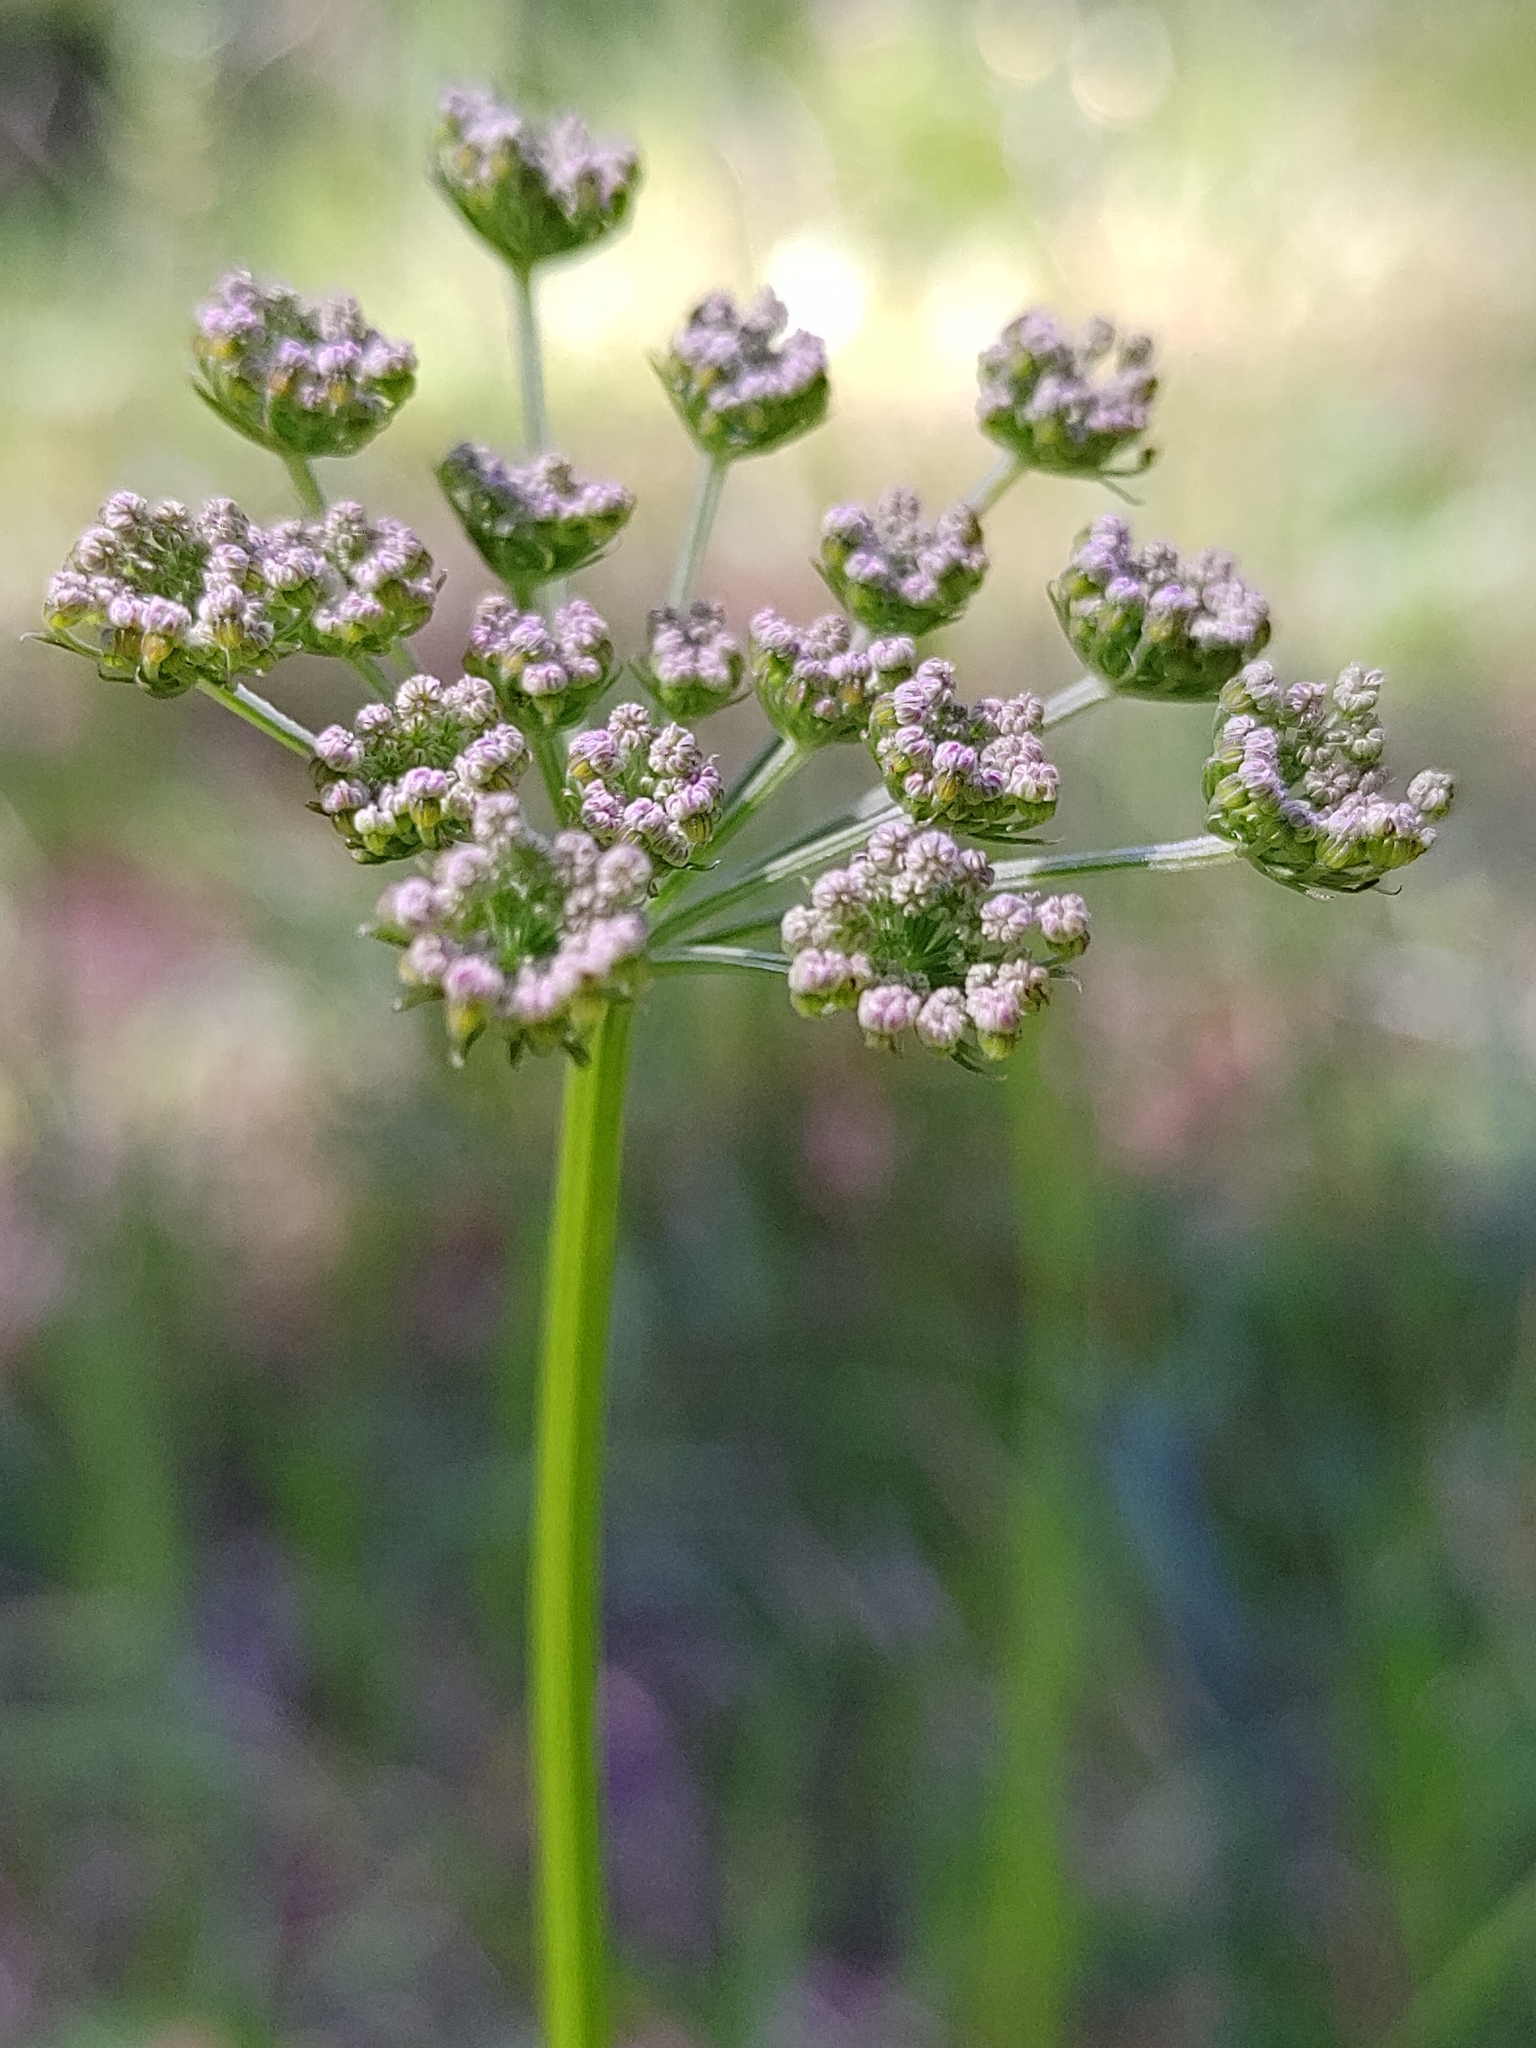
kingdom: Plantae
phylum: Tracheophyta
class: Magnoliopsida
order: Apiales
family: Apiaceae
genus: Selinum
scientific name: Selinum carvifolia
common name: Cambridge milk-parsley
